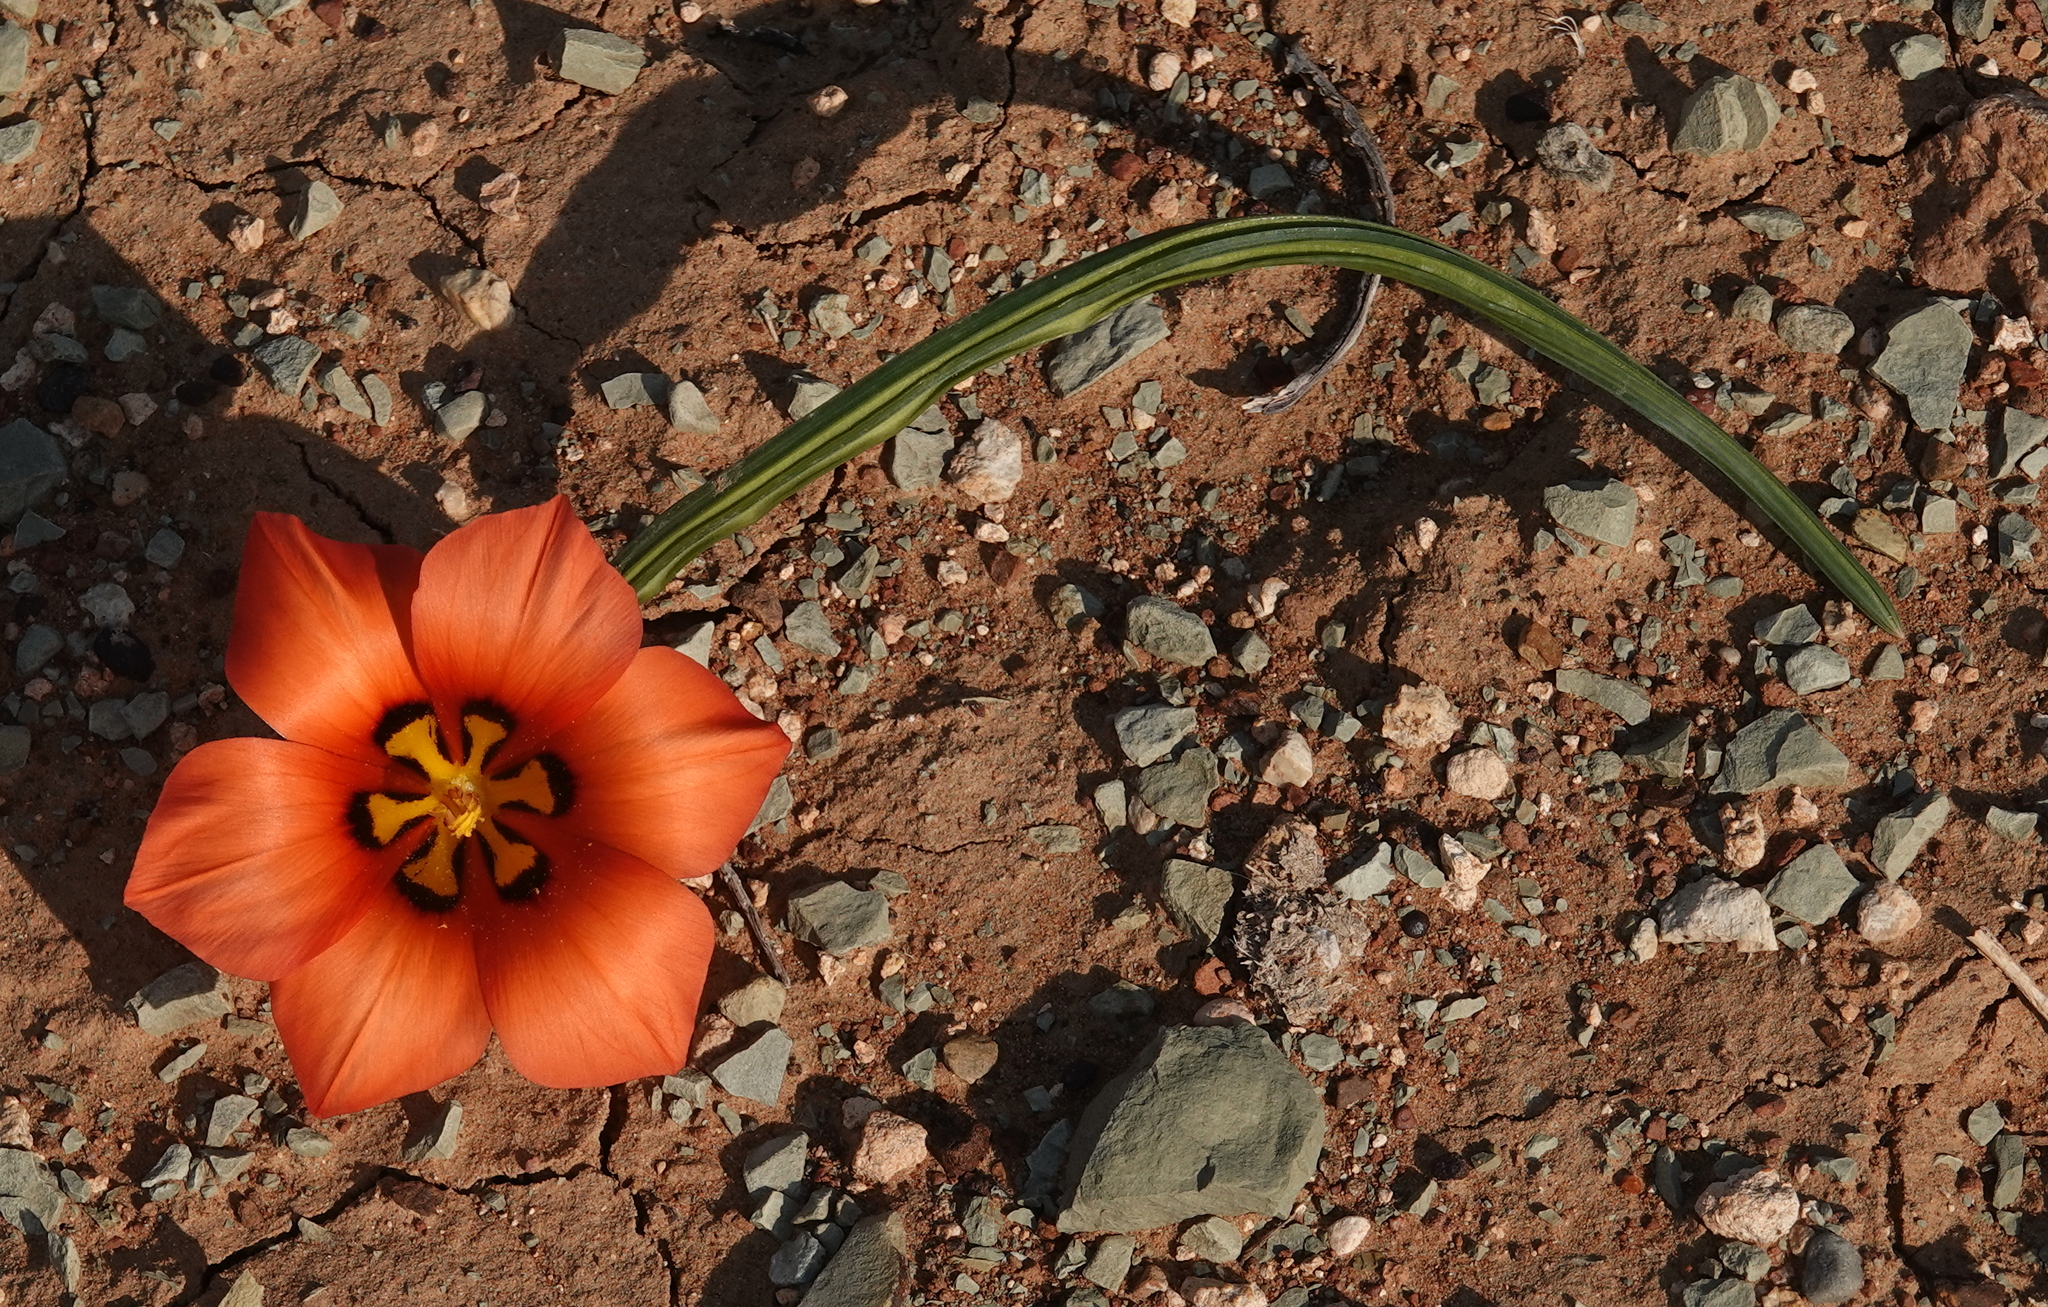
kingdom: Plantae
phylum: Tracheophyta
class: Liliopsida
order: Asparagales
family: Iridaceae
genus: Romulea
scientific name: Romulea unifolia
